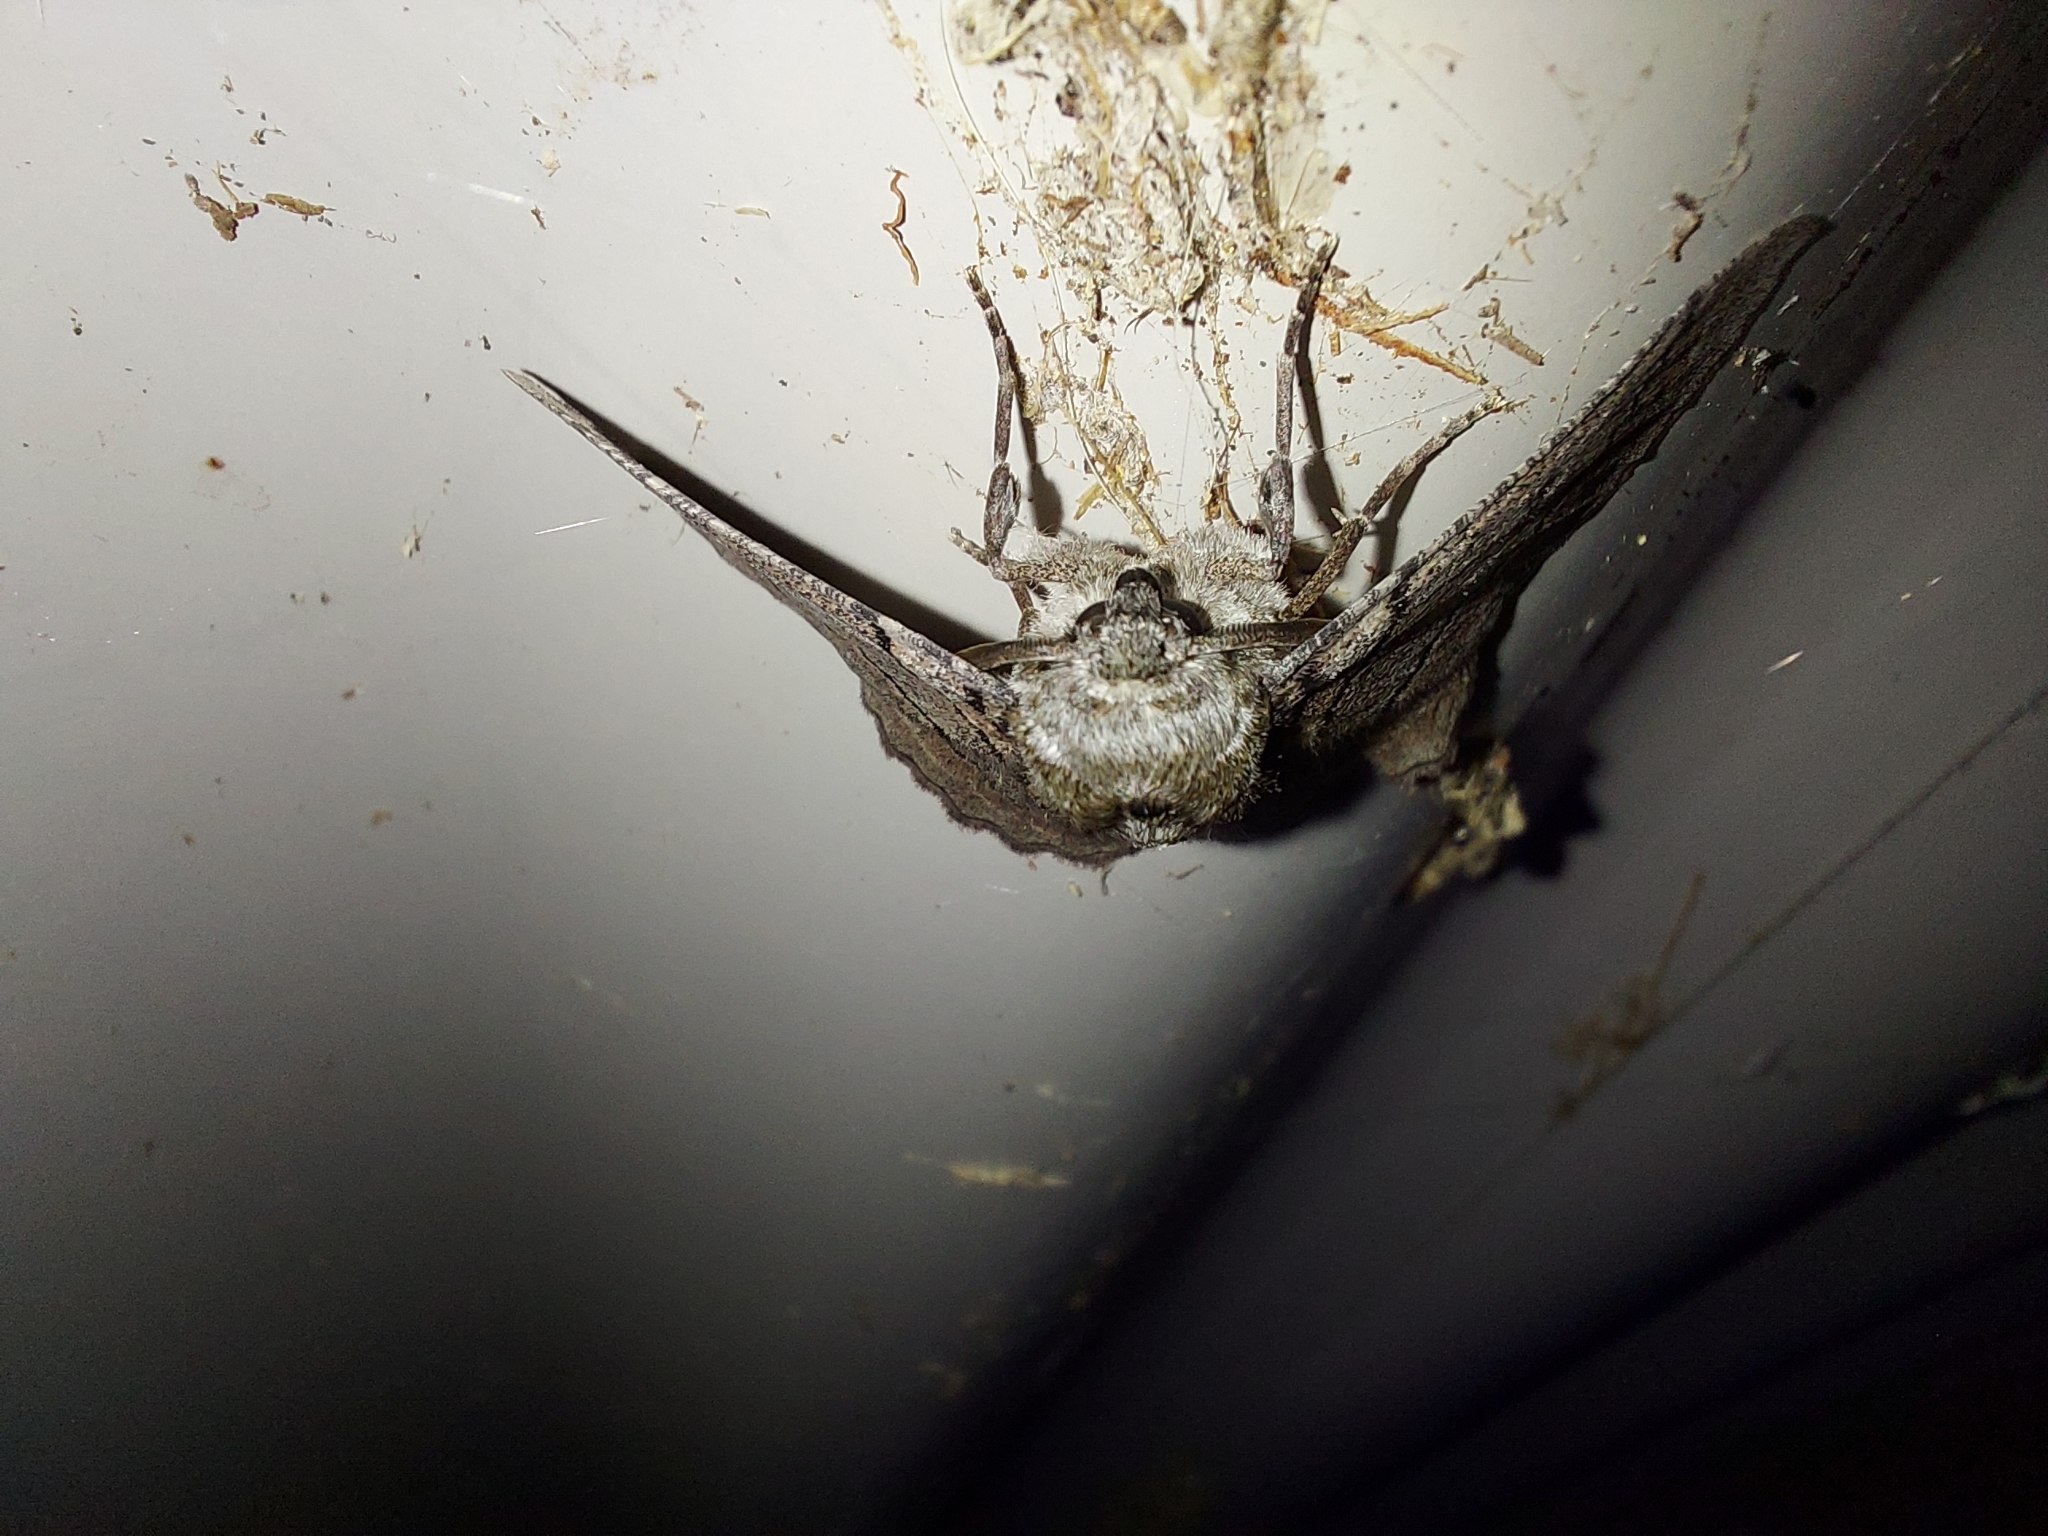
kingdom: Animalia
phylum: Arthropoda
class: Insecta
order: Lepidoptera
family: Geometridae
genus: Hypobapta
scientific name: Hypobapta tachyhalotaria
